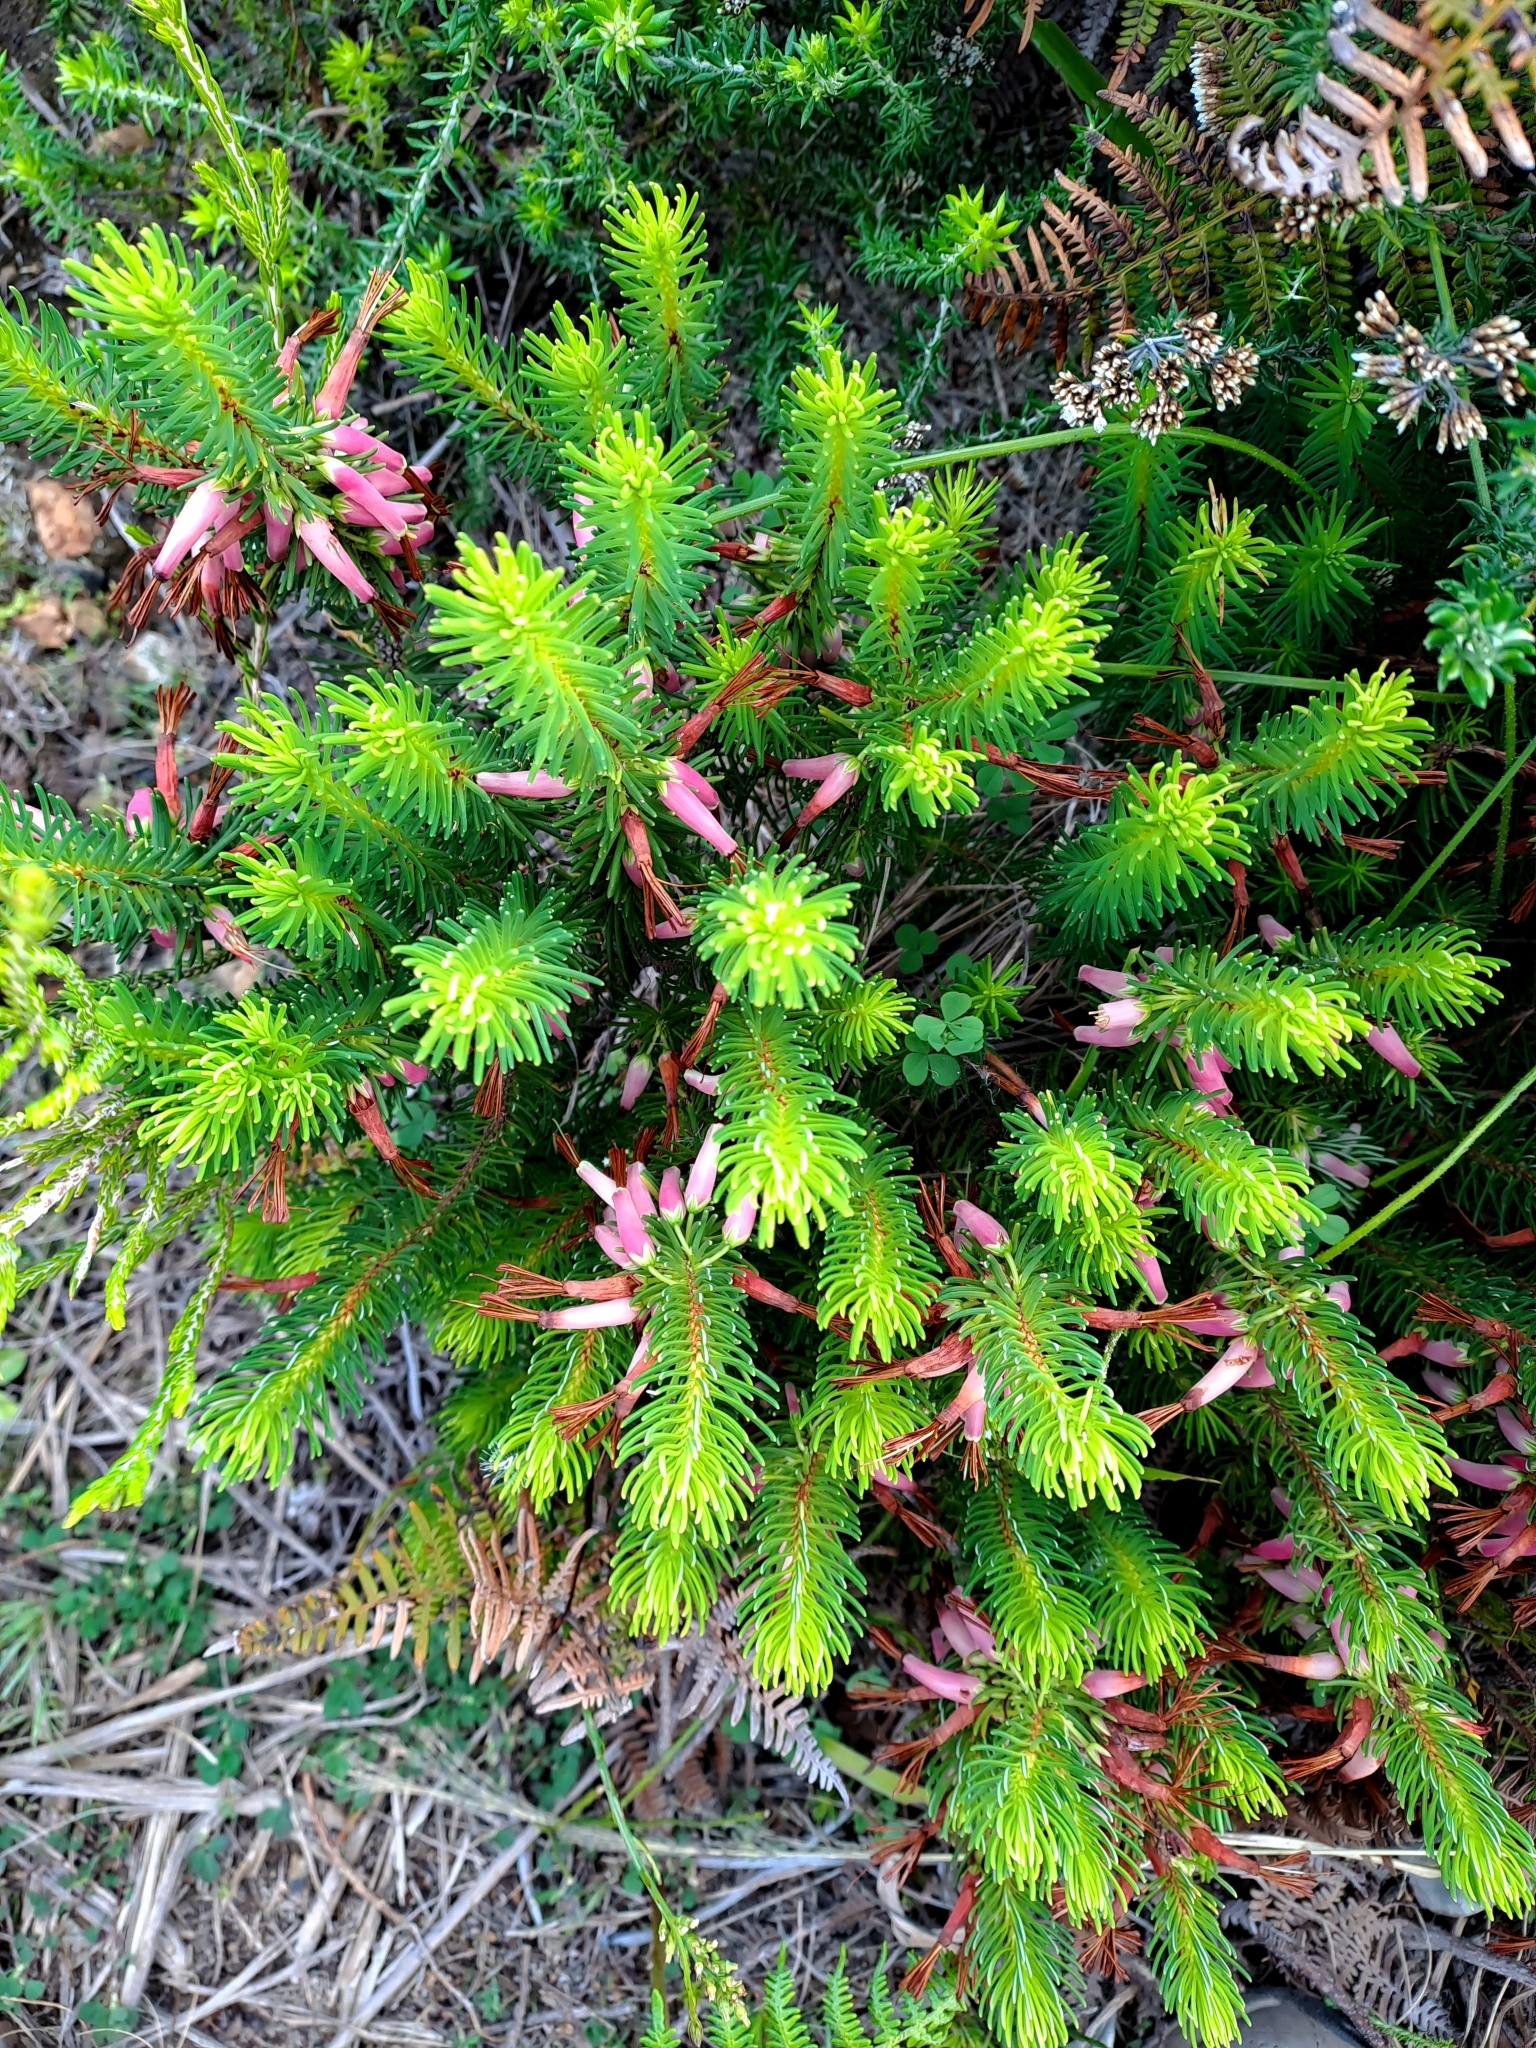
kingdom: Plantae
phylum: Tracheophyta
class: Magnoliopsida
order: Ericales
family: Ericaceae
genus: Erica
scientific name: Erica plukenetii
